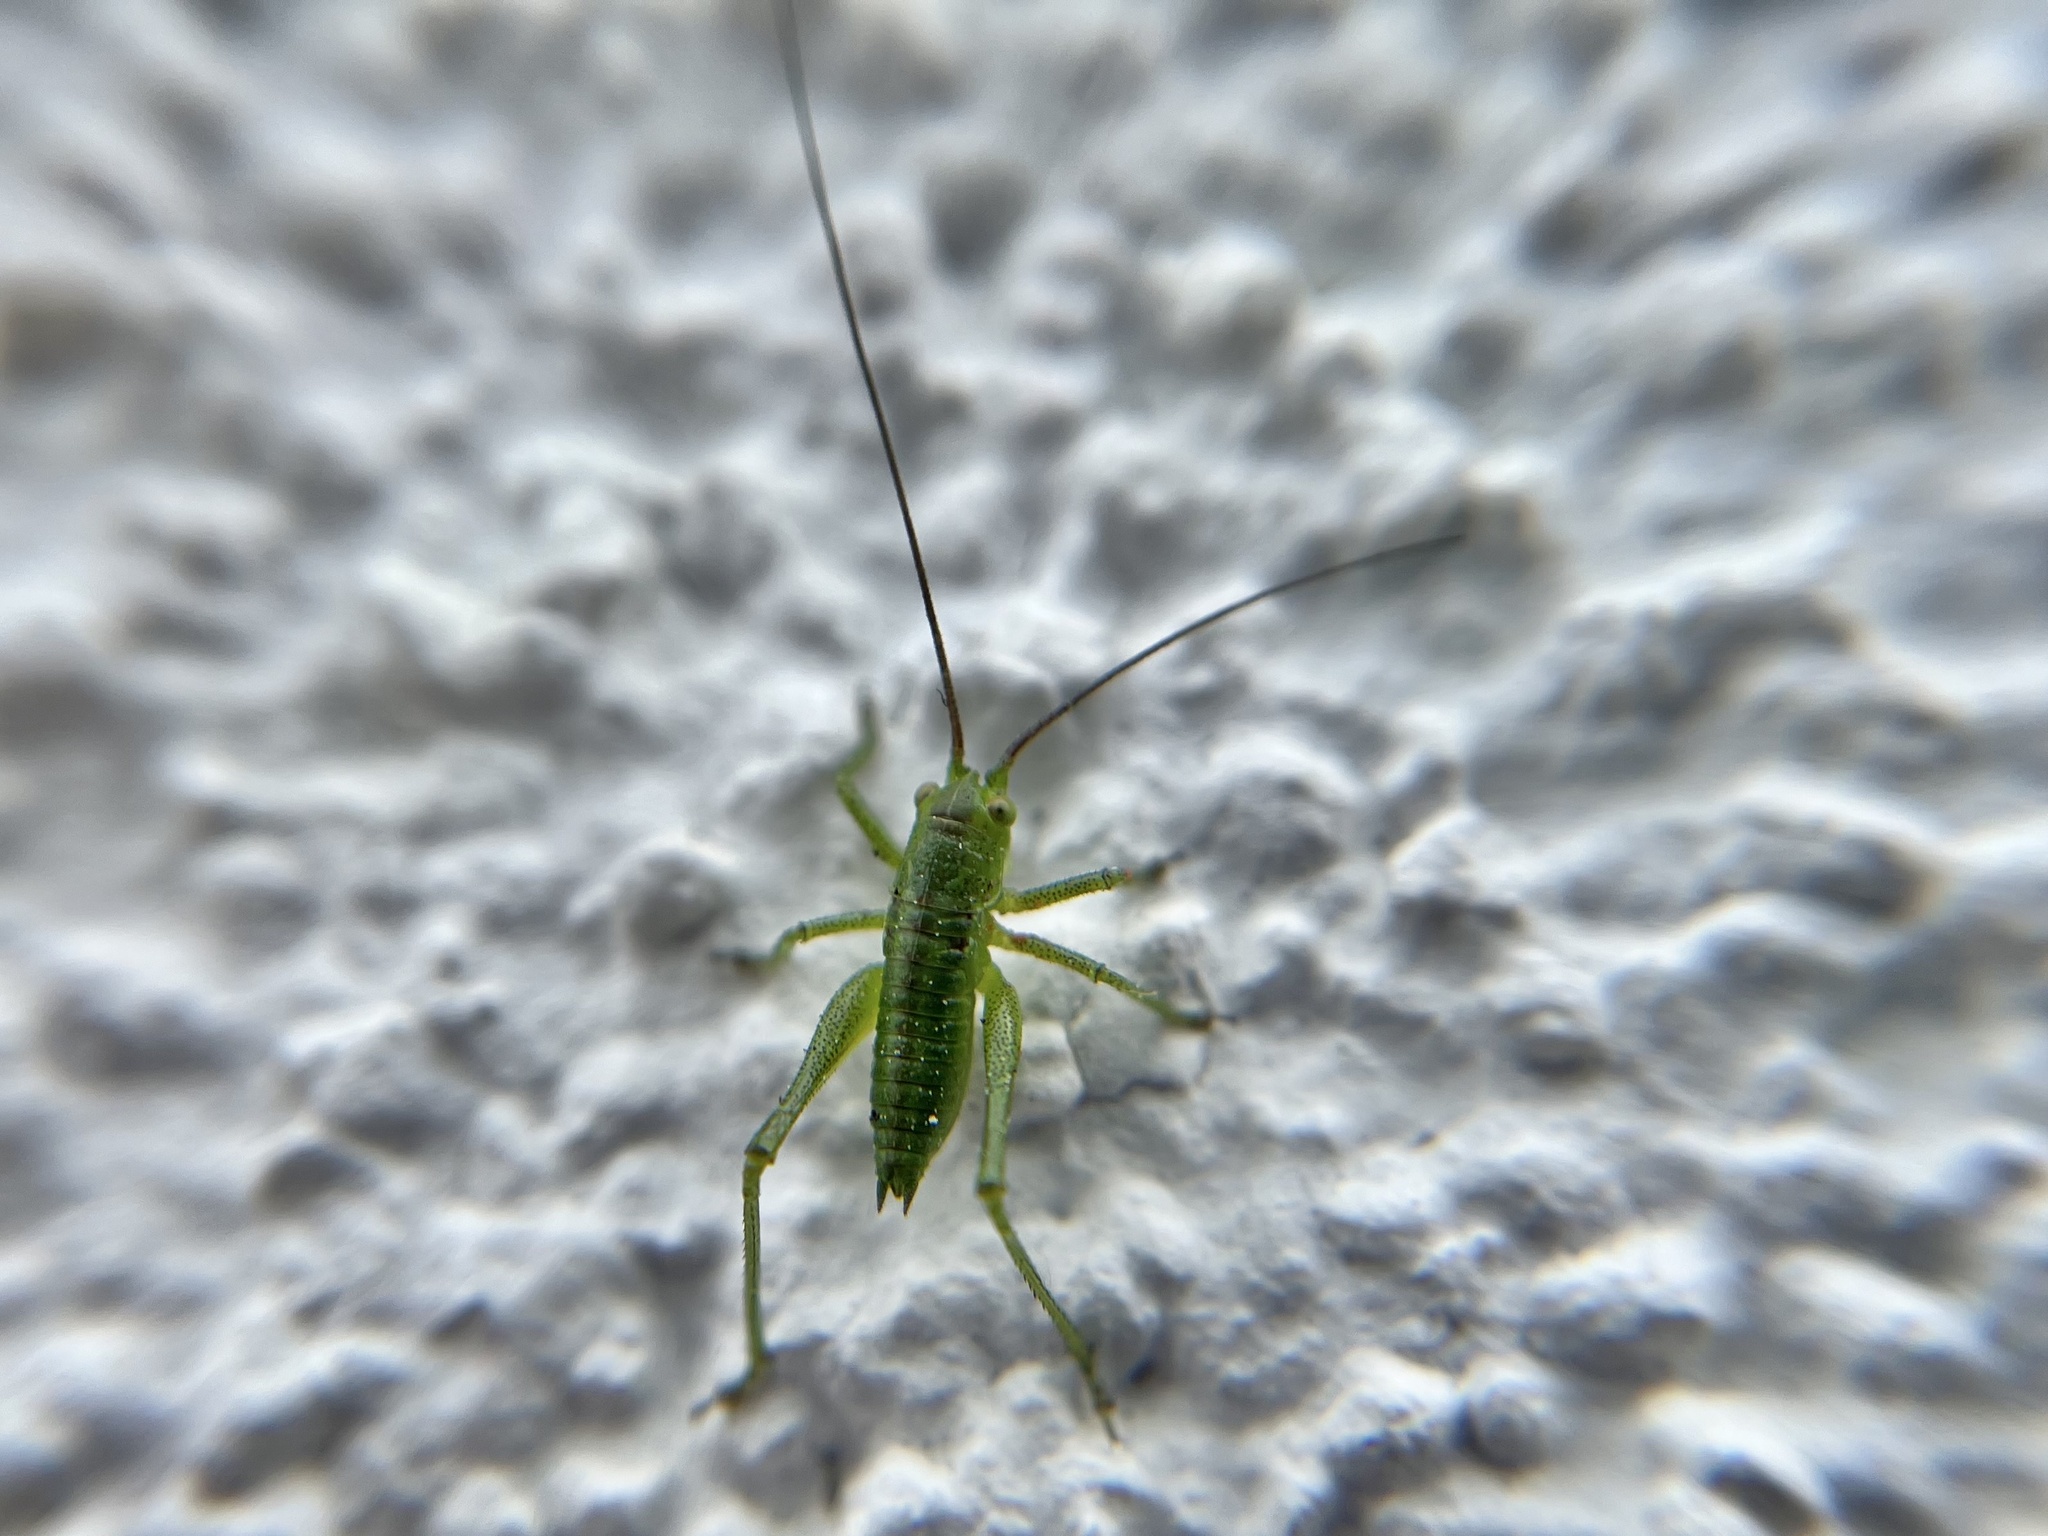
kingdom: Animalia
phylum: Arthropoda
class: Insecta
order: Orthoptera
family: Tettigoniidae
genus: Tettigonia
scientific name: Tettigonia viridissima
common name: Great green bush-cricket
